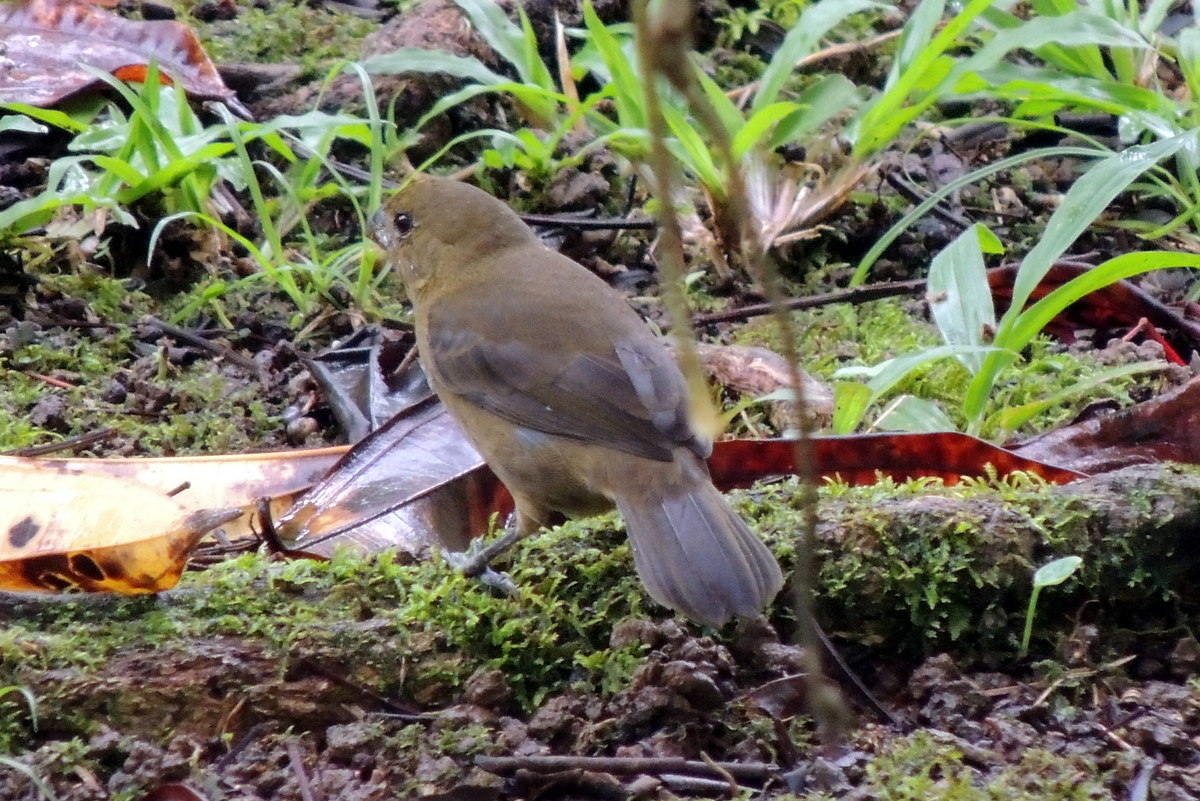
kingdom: Animalia
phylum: Chordata
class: Aves
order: Passeriformes
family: Thraupidae
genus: Sporophila
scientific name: Sporophila corvina
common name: Variable seedeater
